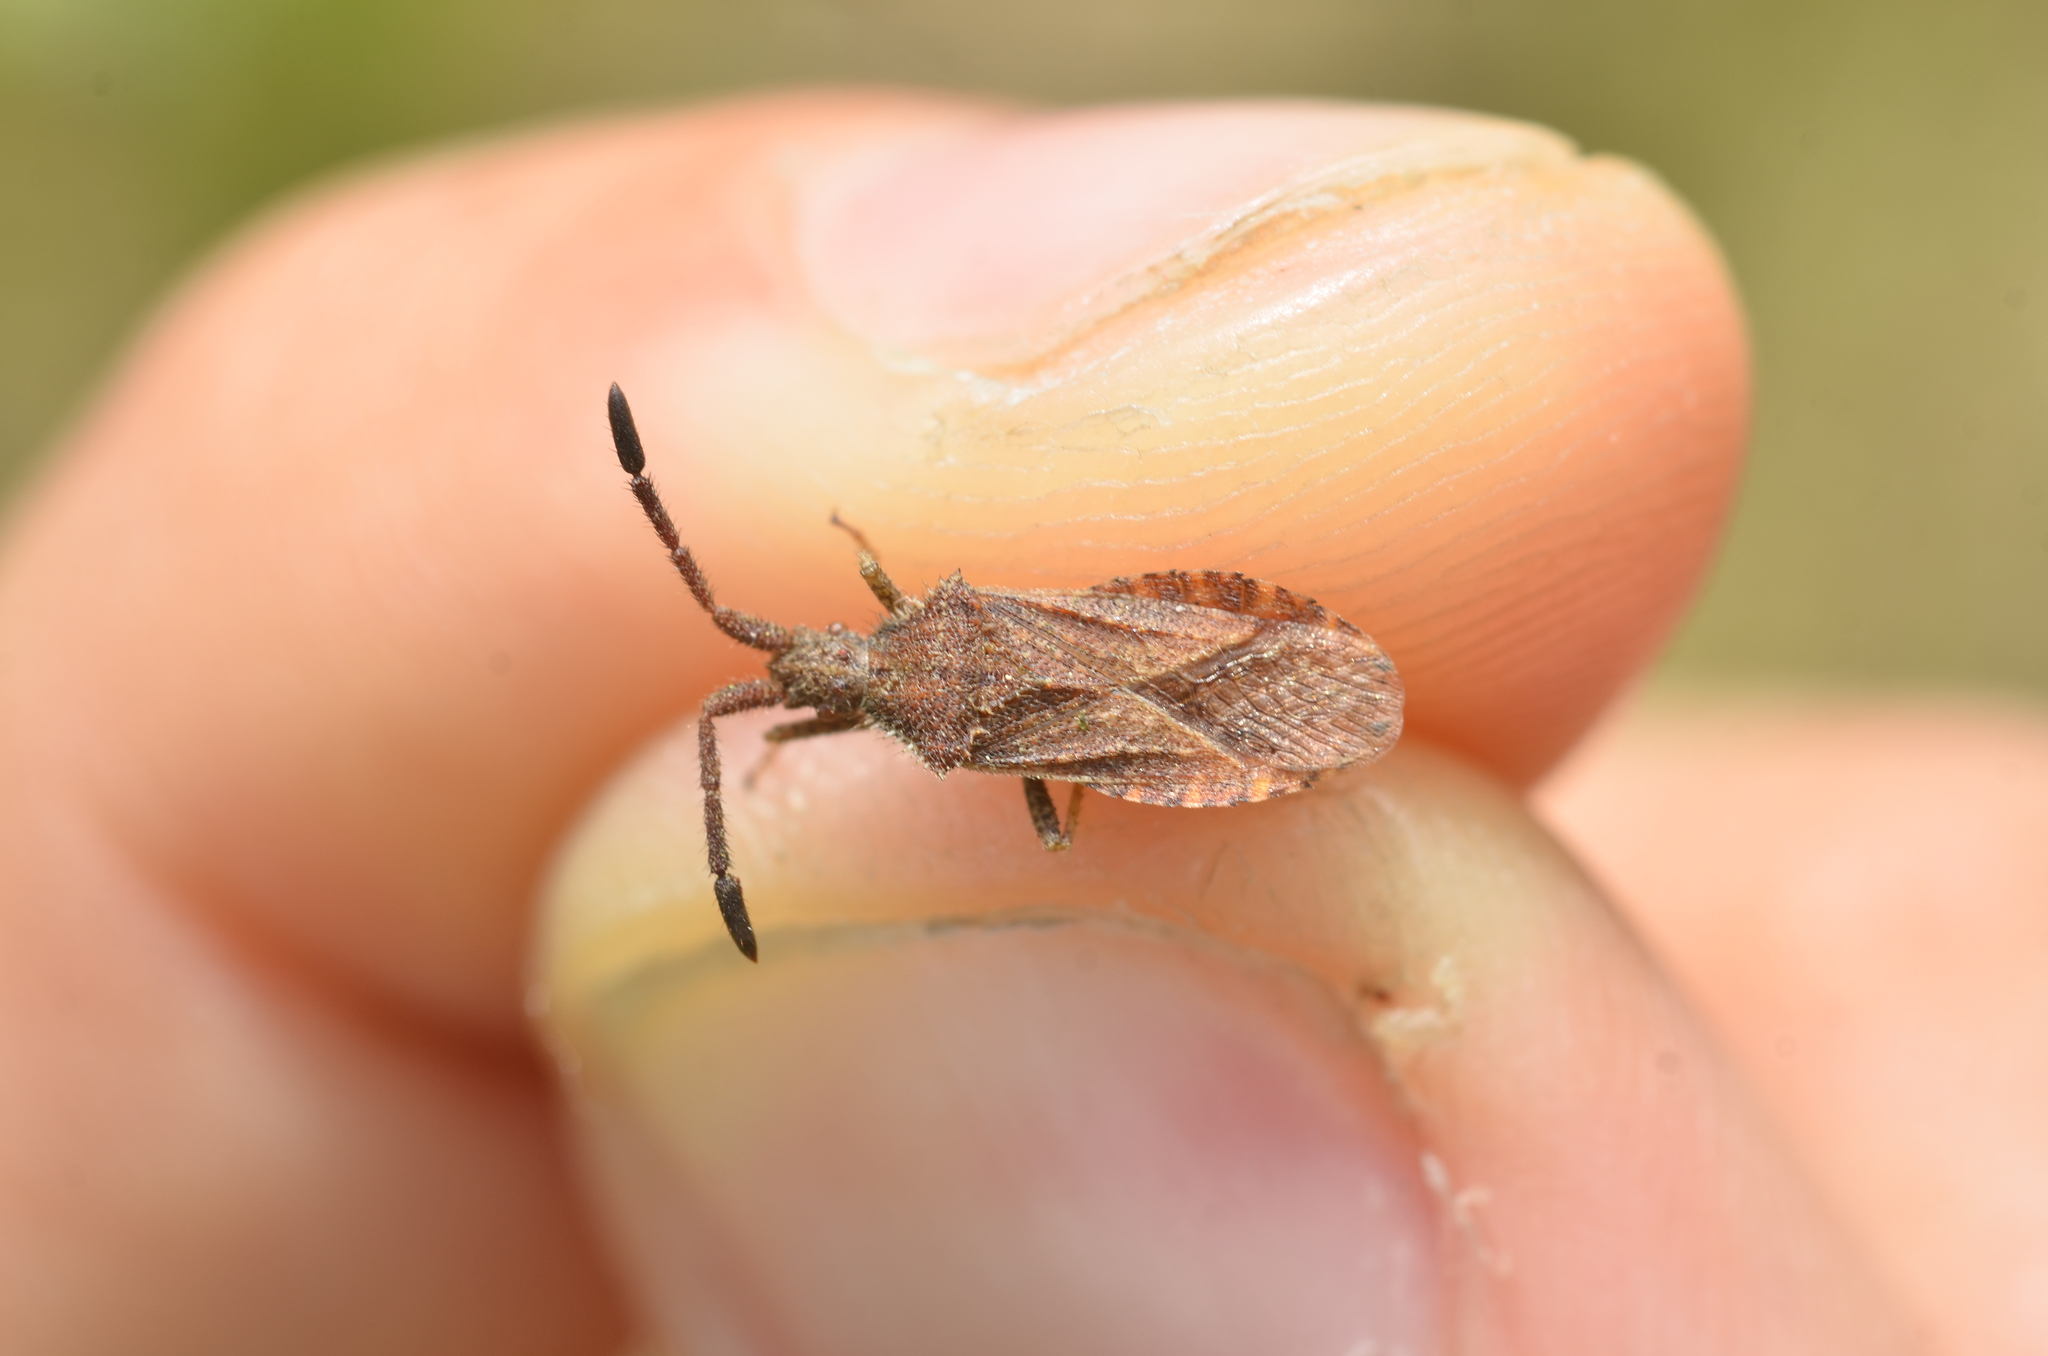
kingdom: Animalia
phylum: Arthropoda
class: Insecta
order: Hemiptera
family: Coreidae
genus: Coriomeris
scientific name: Coriomeris denticulatus
